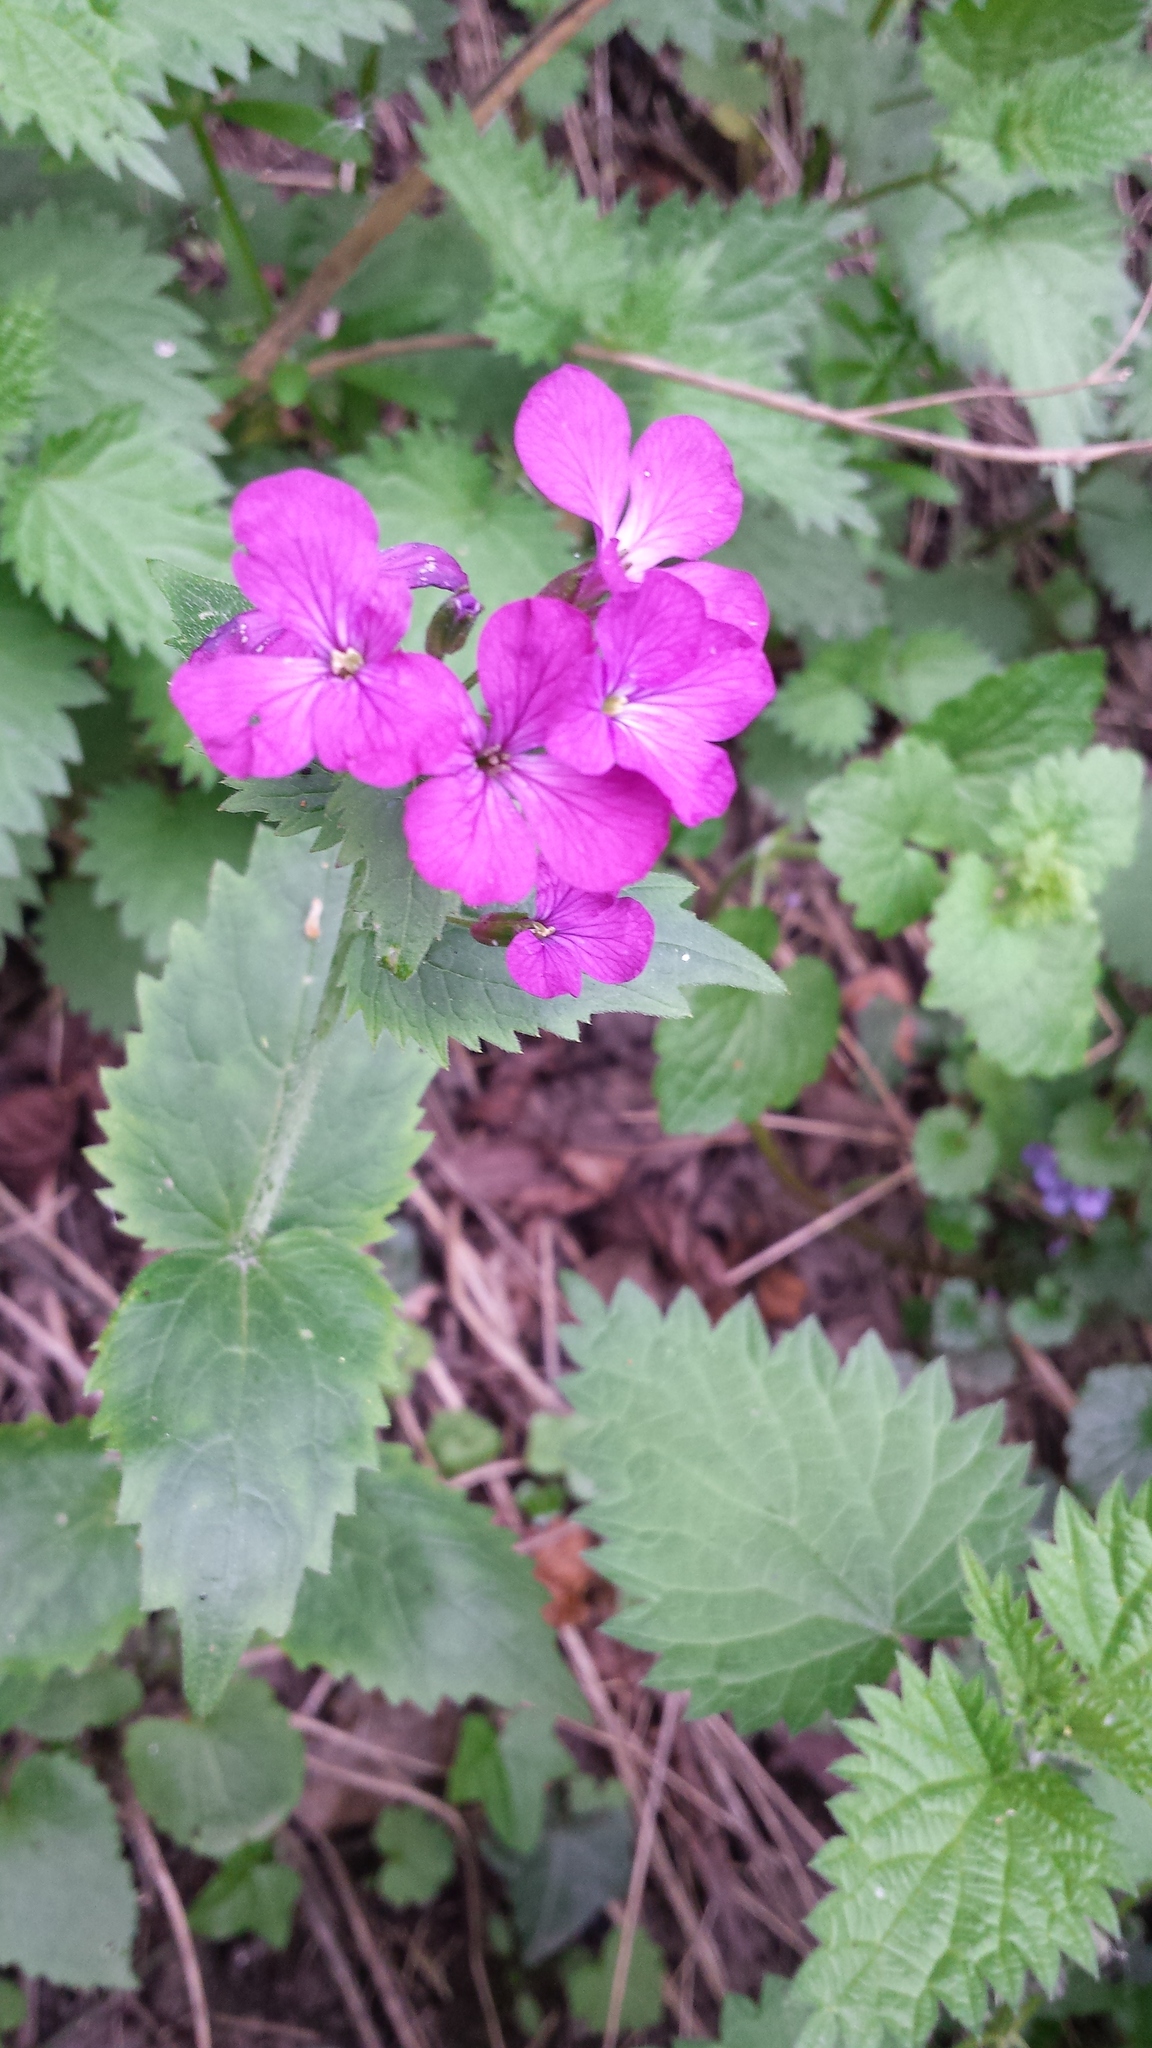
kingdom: Plantae
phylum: Tracheophyta
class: Magnoliopsida
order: Brassicales
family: Brassicaceae
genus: Lunaria
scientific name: Lunaria annua
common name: Honesty
